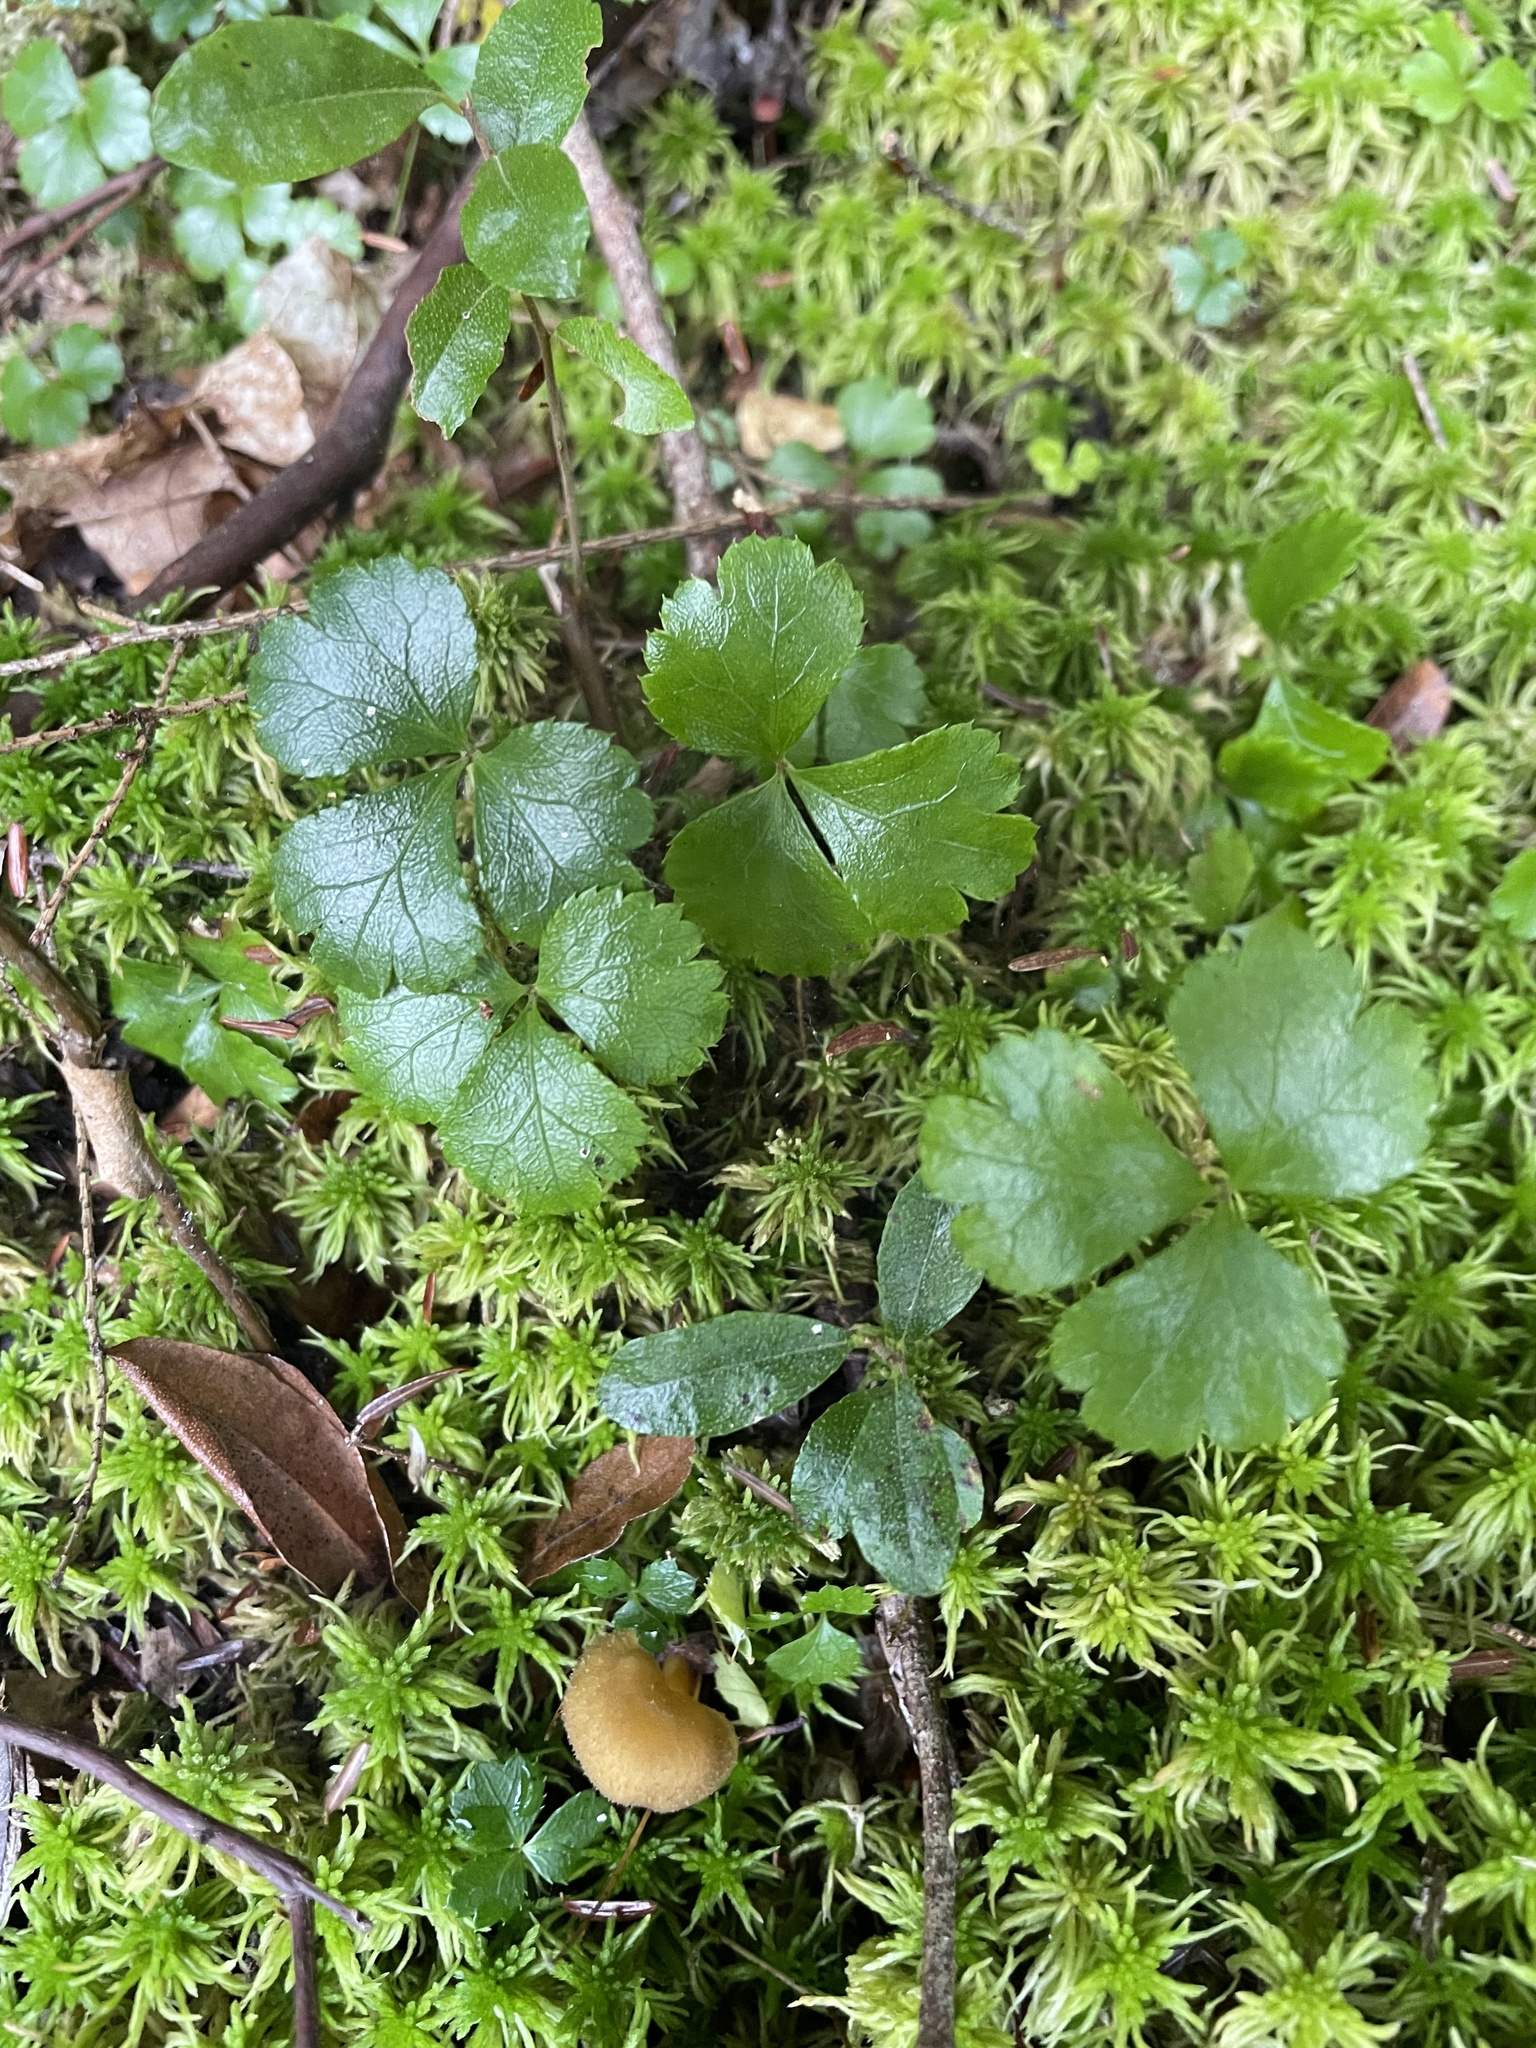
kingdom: Plantae
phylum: Tracheophyta
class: Magnoliopsida
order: Ranunculales
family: Ranunculaceae
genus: Coptis
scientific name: Coptis trifolia
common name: Canker-root
